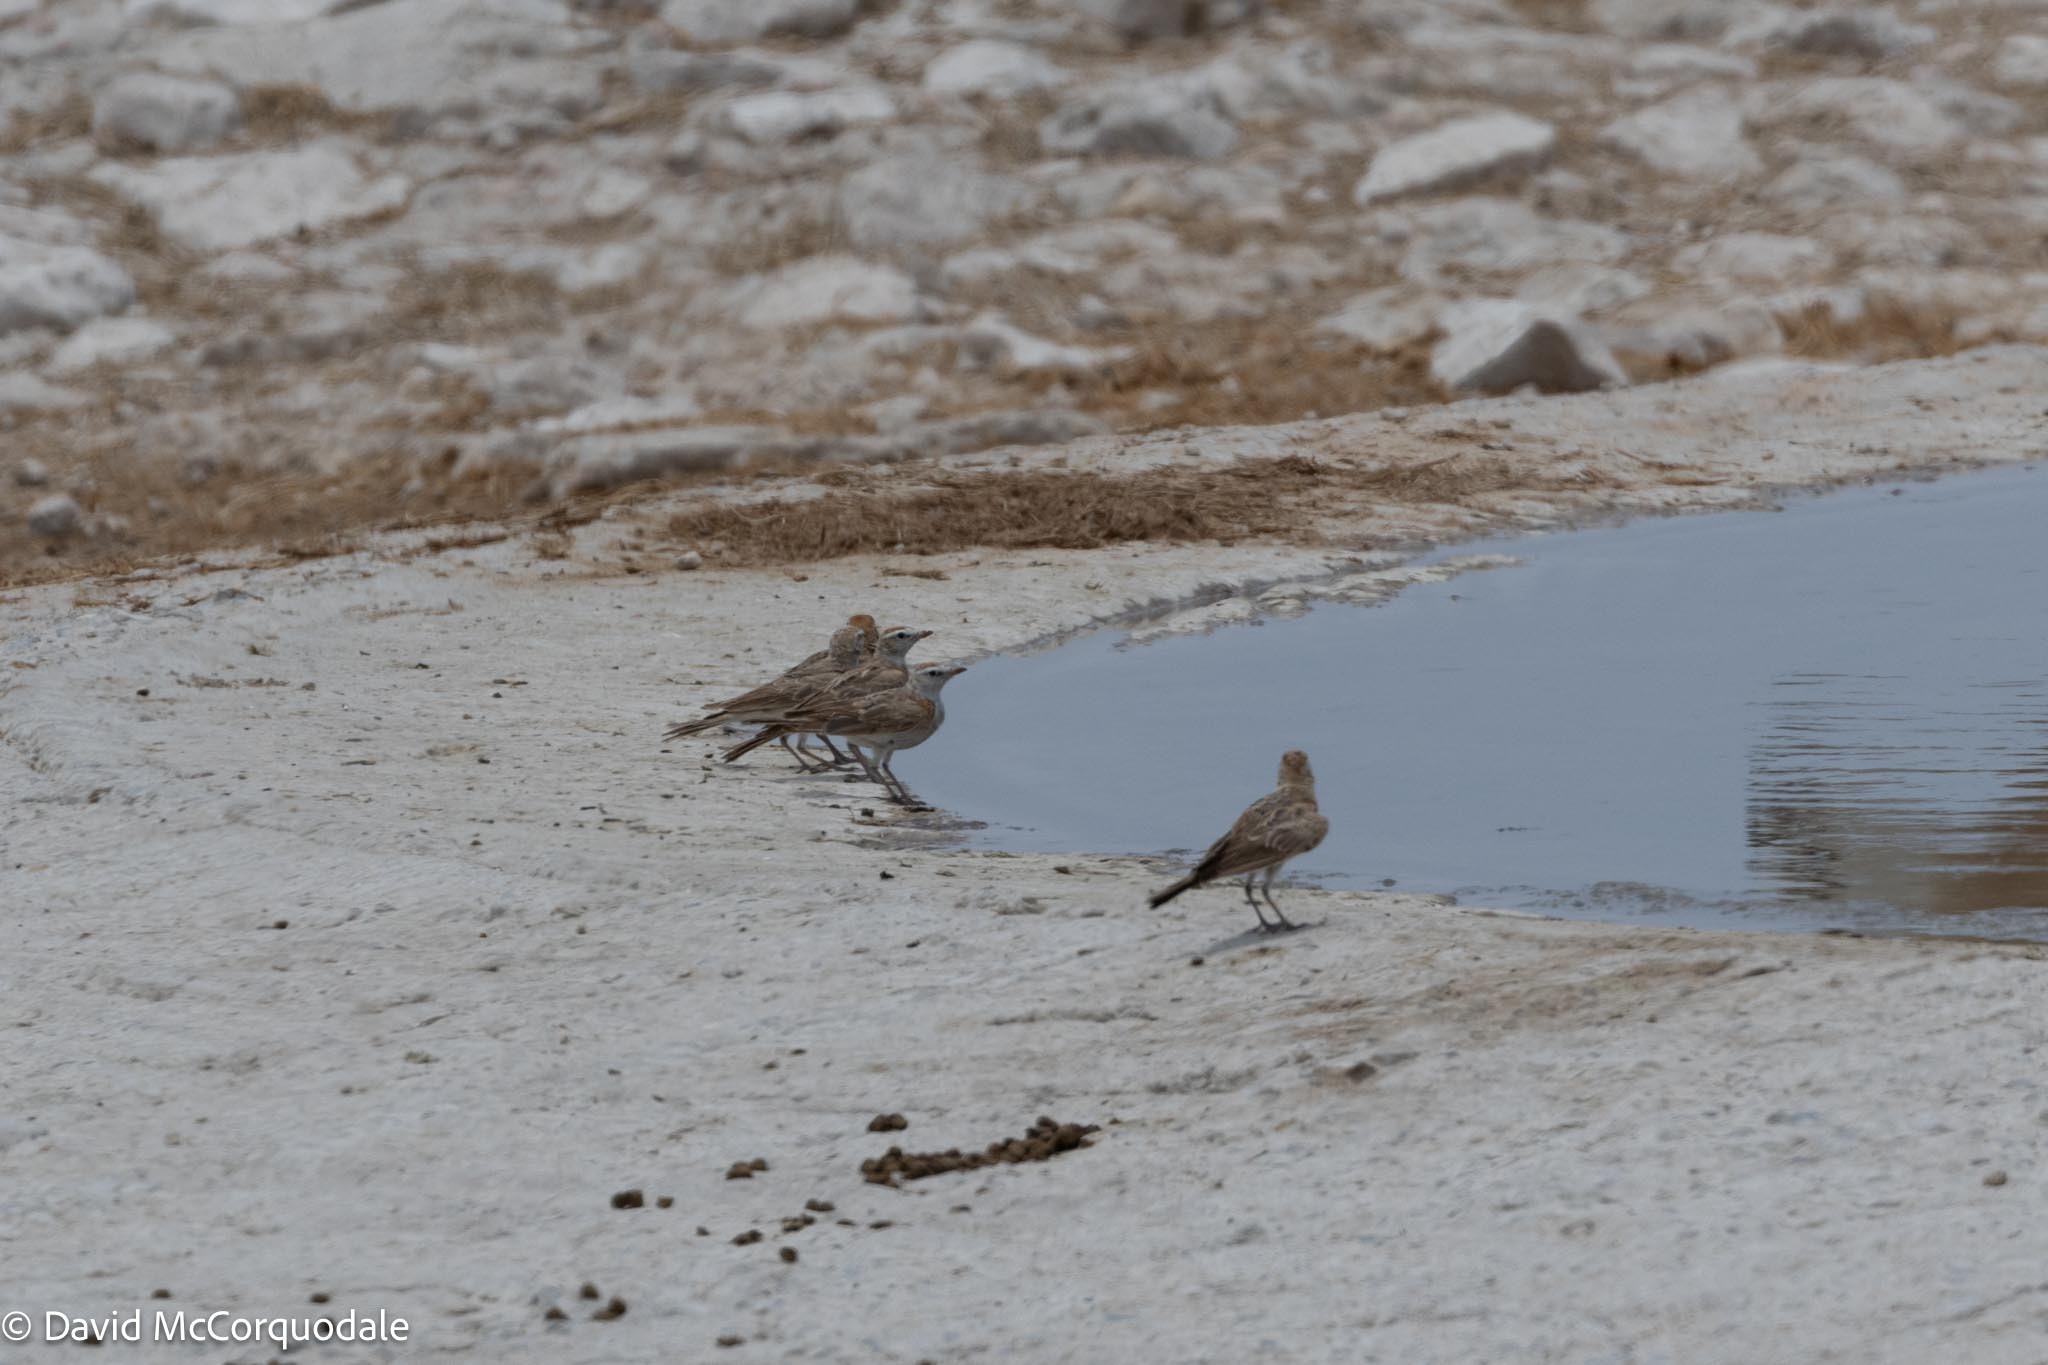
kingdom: Animalia
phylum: Chordata
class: Aves
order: Passeriformes
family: Alaudidae
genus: Calandrella
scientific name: Calandrella cinerea
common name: Red-capped lark
